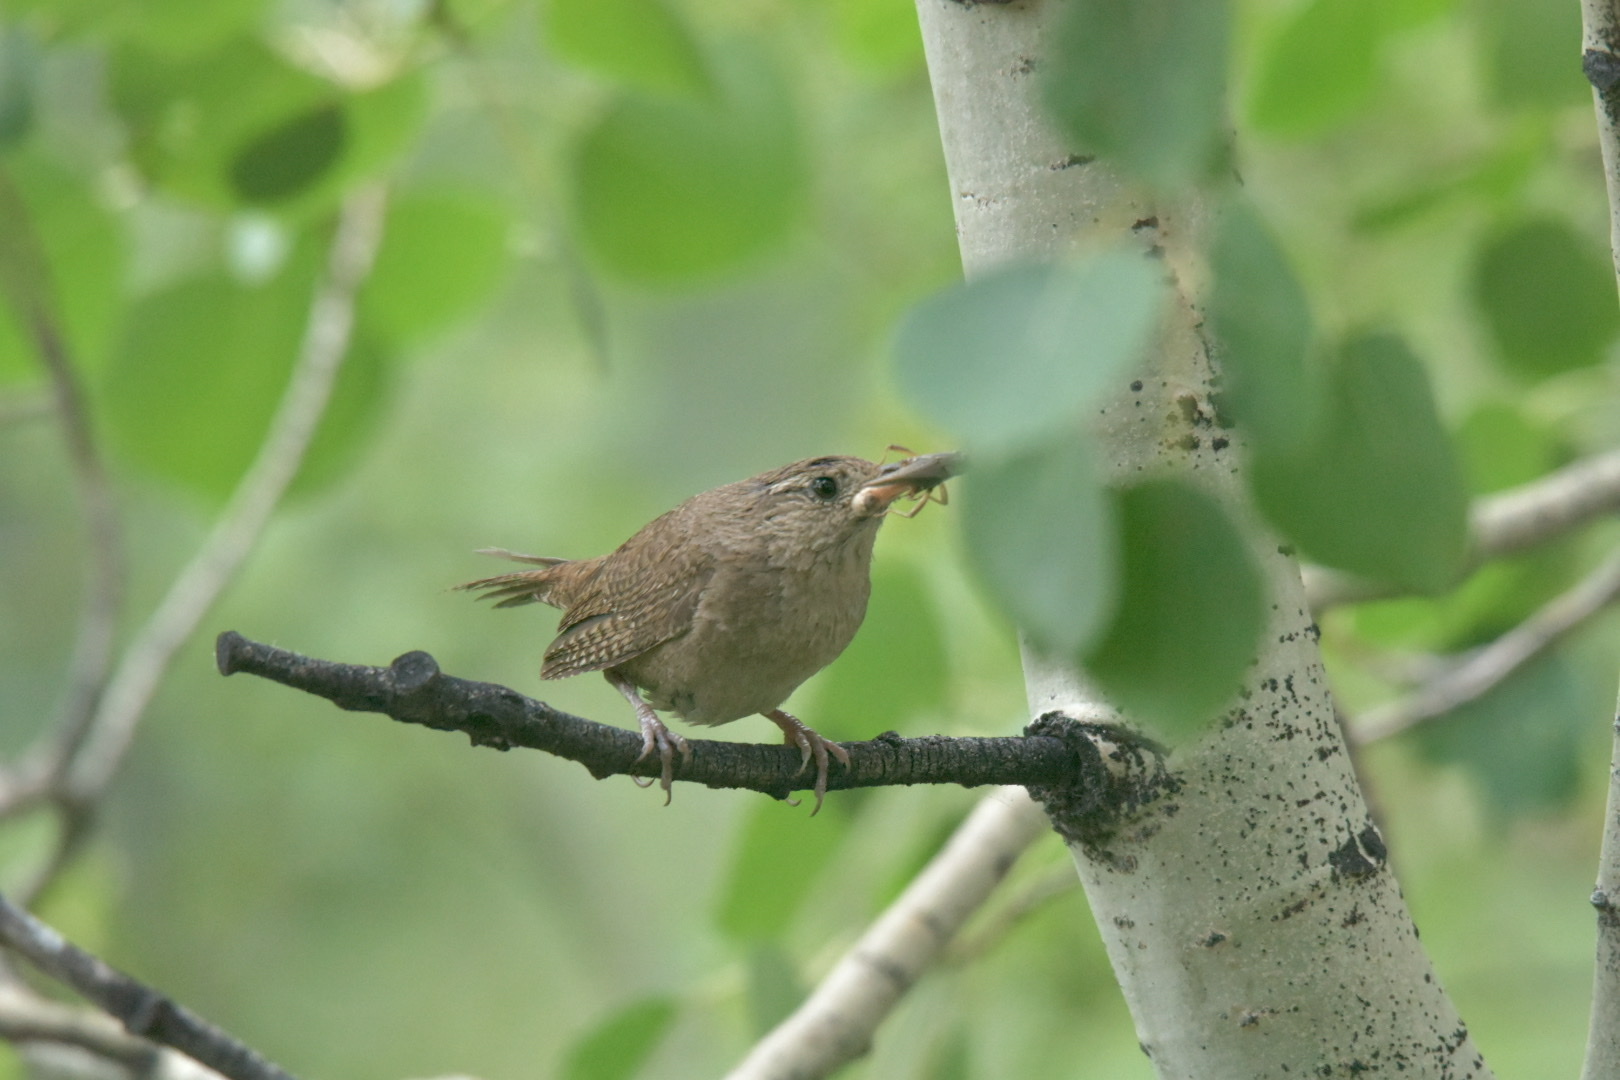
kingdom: Animalia
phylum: Chordata
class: Aves
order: Passeriformes
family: Troglodytidae
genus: Troglodytes
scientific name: Troglodytes aedon
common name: House wren
